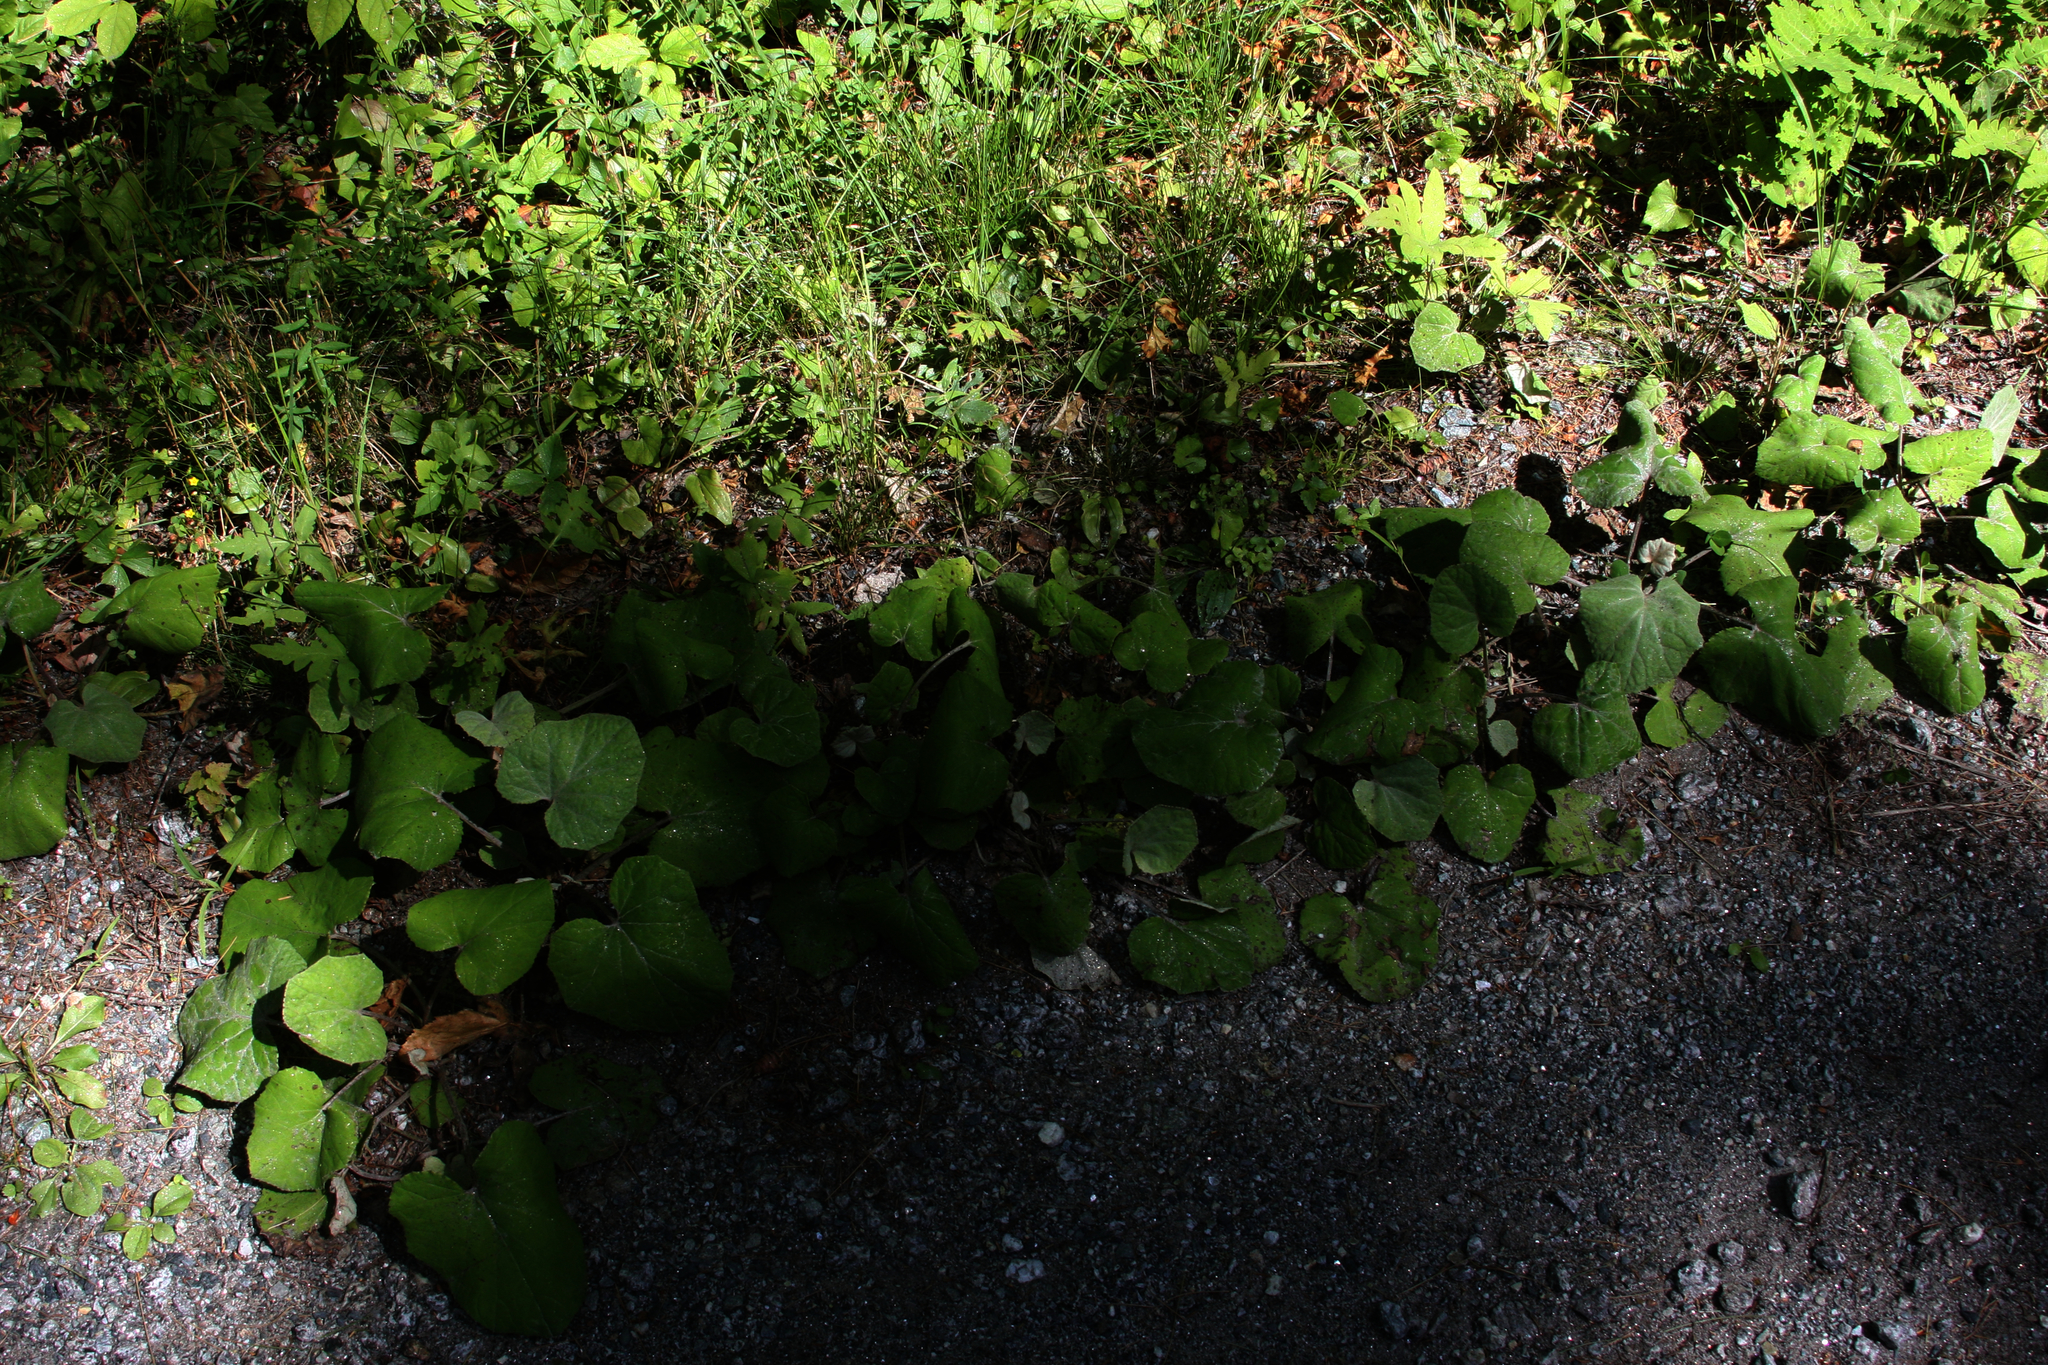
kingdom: Plantae
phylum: Tracheophyta
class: Magnoliopsida
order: Asterales
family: Asteraceae
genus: Tussilago
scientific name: Tussilago farfara
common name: Coltsfoot
